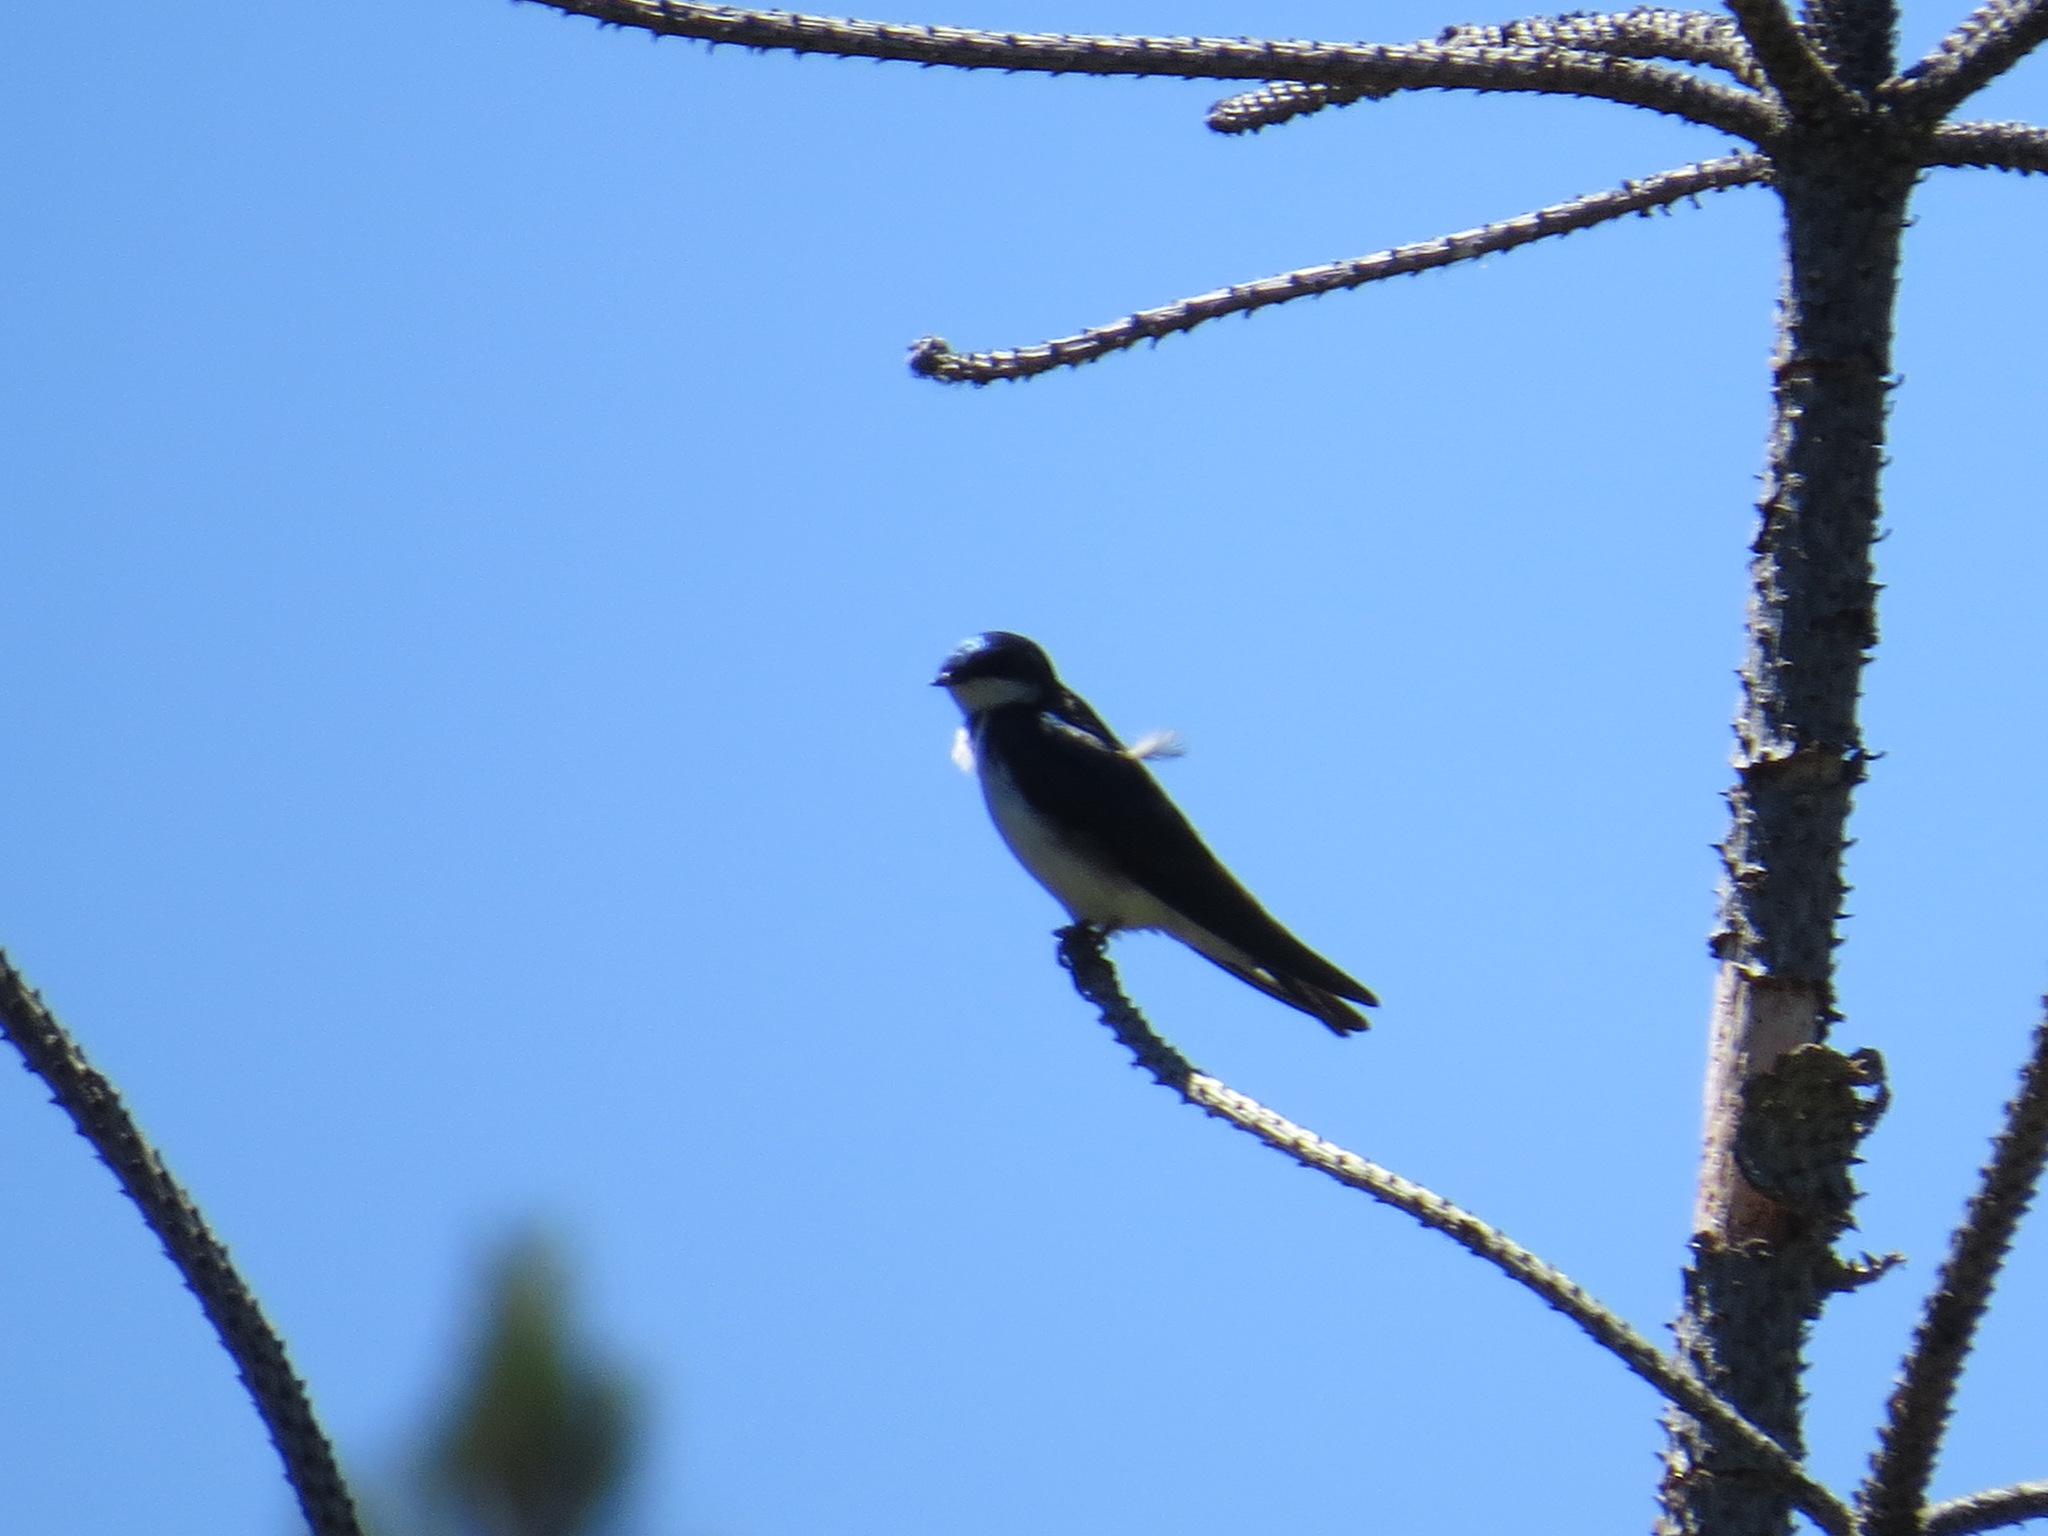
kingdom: Animalia
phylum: Chordata
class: Aves
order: Passeriformes
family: Hirundinidae
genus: Tachycineta
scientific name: Tachycineta bicolor
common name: Tree swallow
